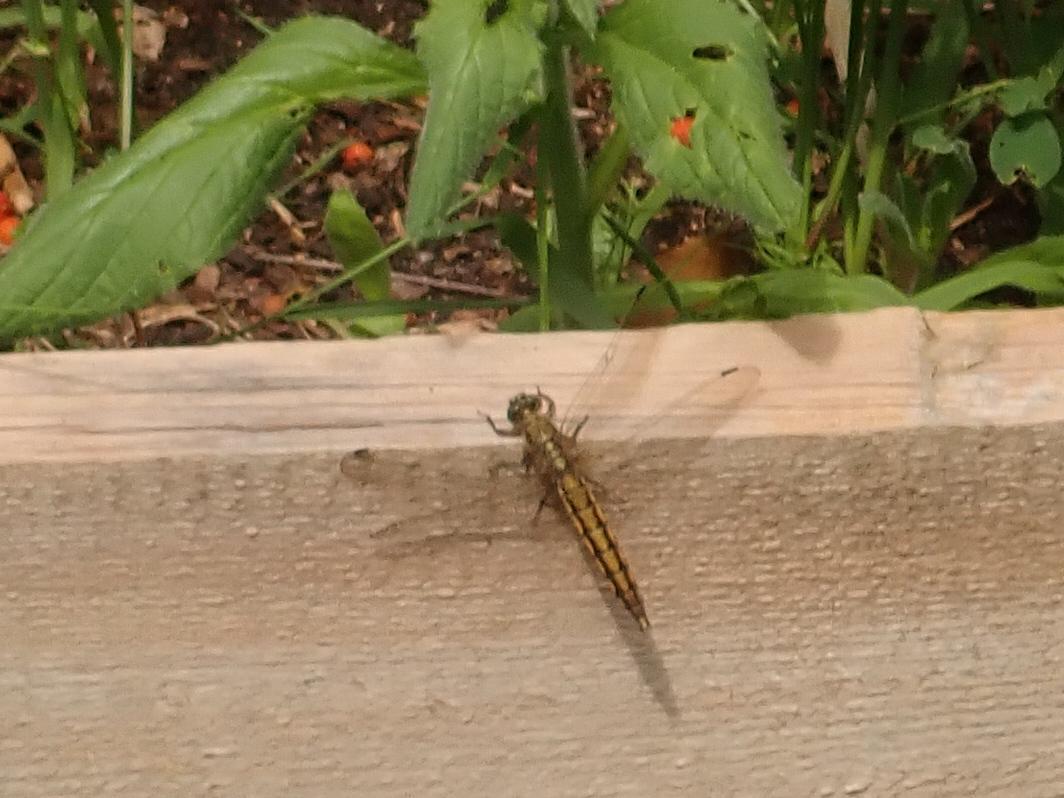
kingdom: Animalia
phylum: Arthropoda
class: Insecta
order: Odonata
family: Libellulidae
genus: Orthetrum
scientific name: Orthetrum cancellatum
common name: Black-tailed skimmer
